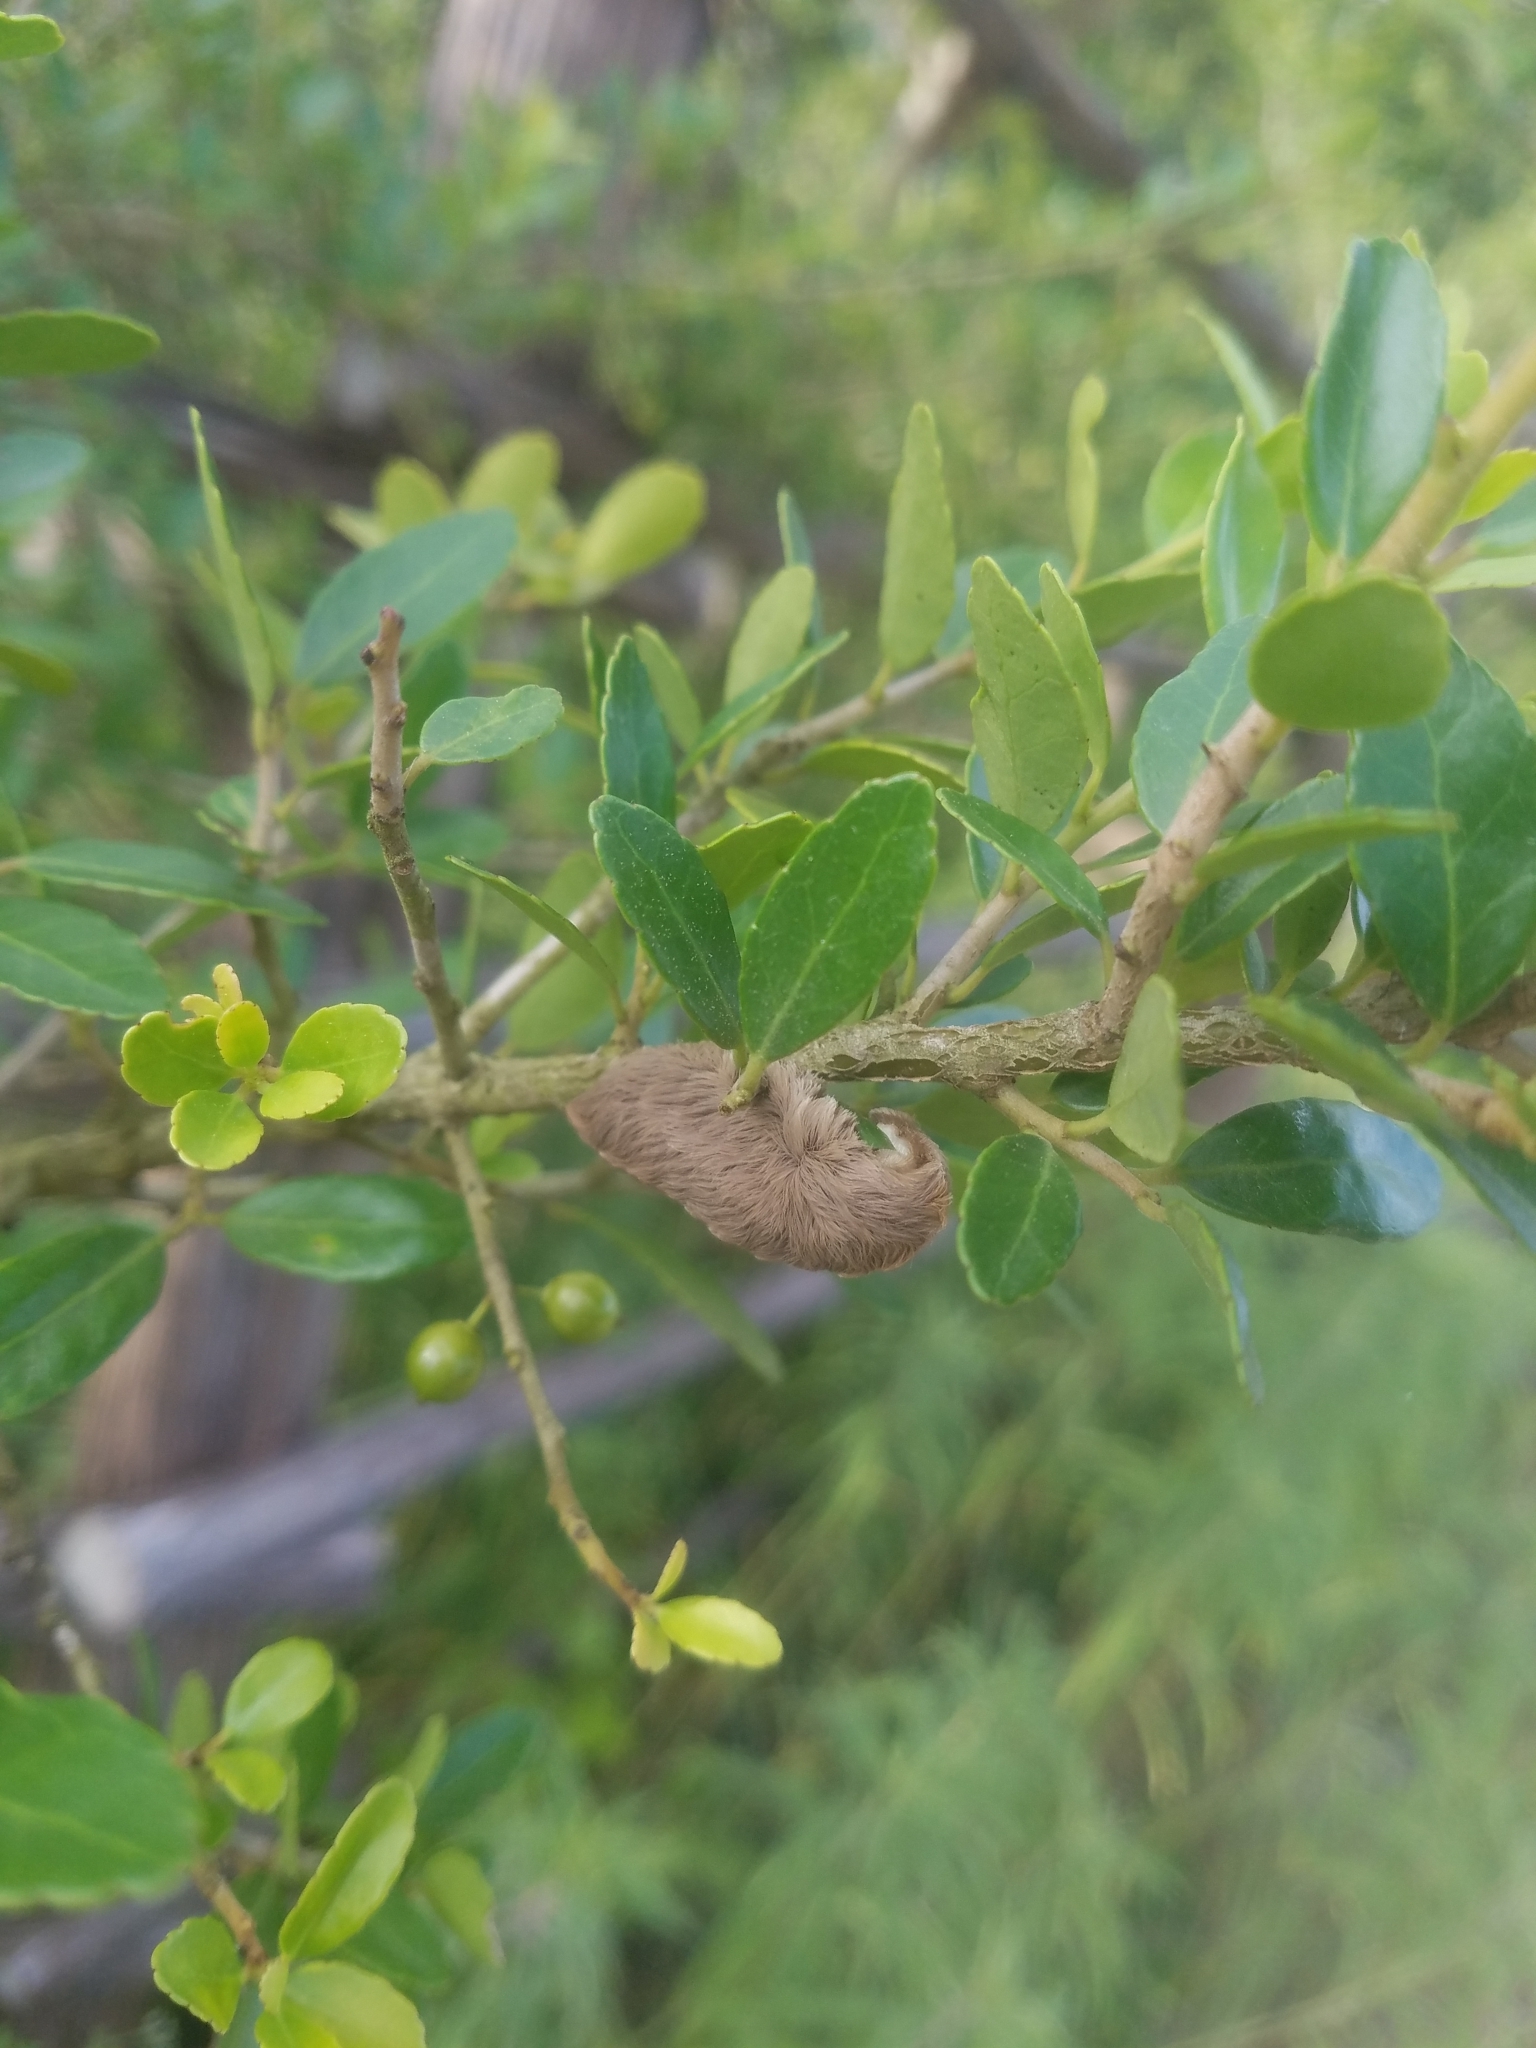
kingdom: Animalia
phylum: Arthropoda
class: Insecta
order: Lepidoptera
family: Megalopygidae
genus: Megalopyge
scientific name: Megalopyge opercularis
